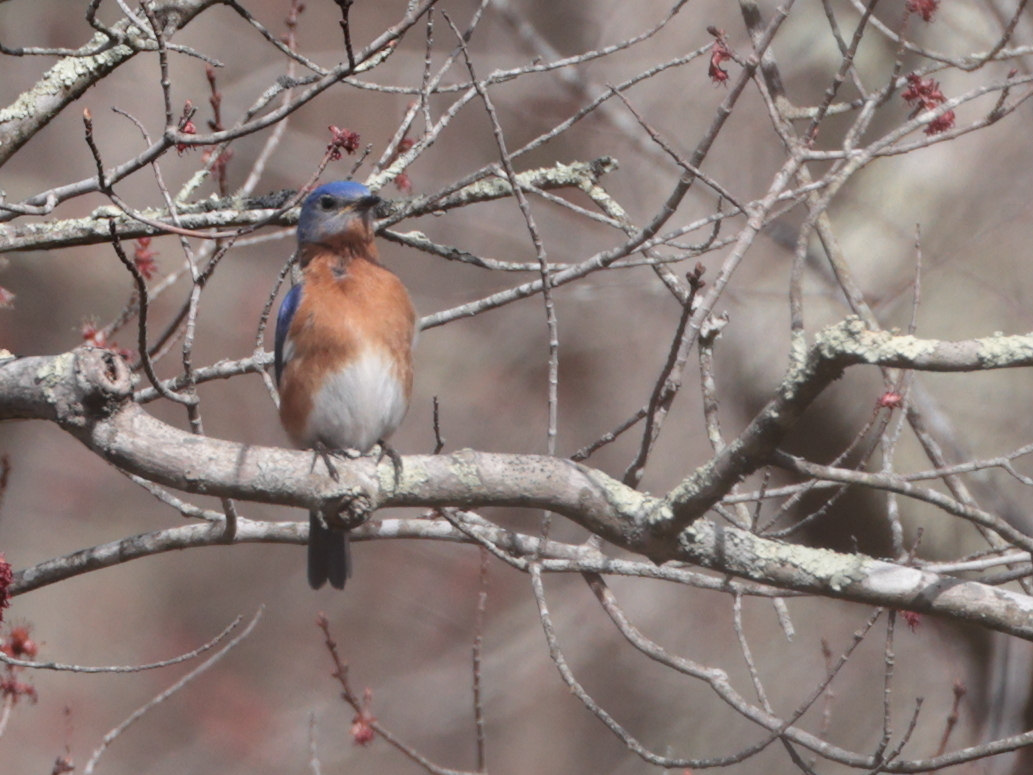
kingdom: Animalia
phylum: Chordata
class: Aves
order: Passeriformes
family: Turdidae
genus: Sialia
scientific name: Sialia sialis
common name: Eastern bluebird
